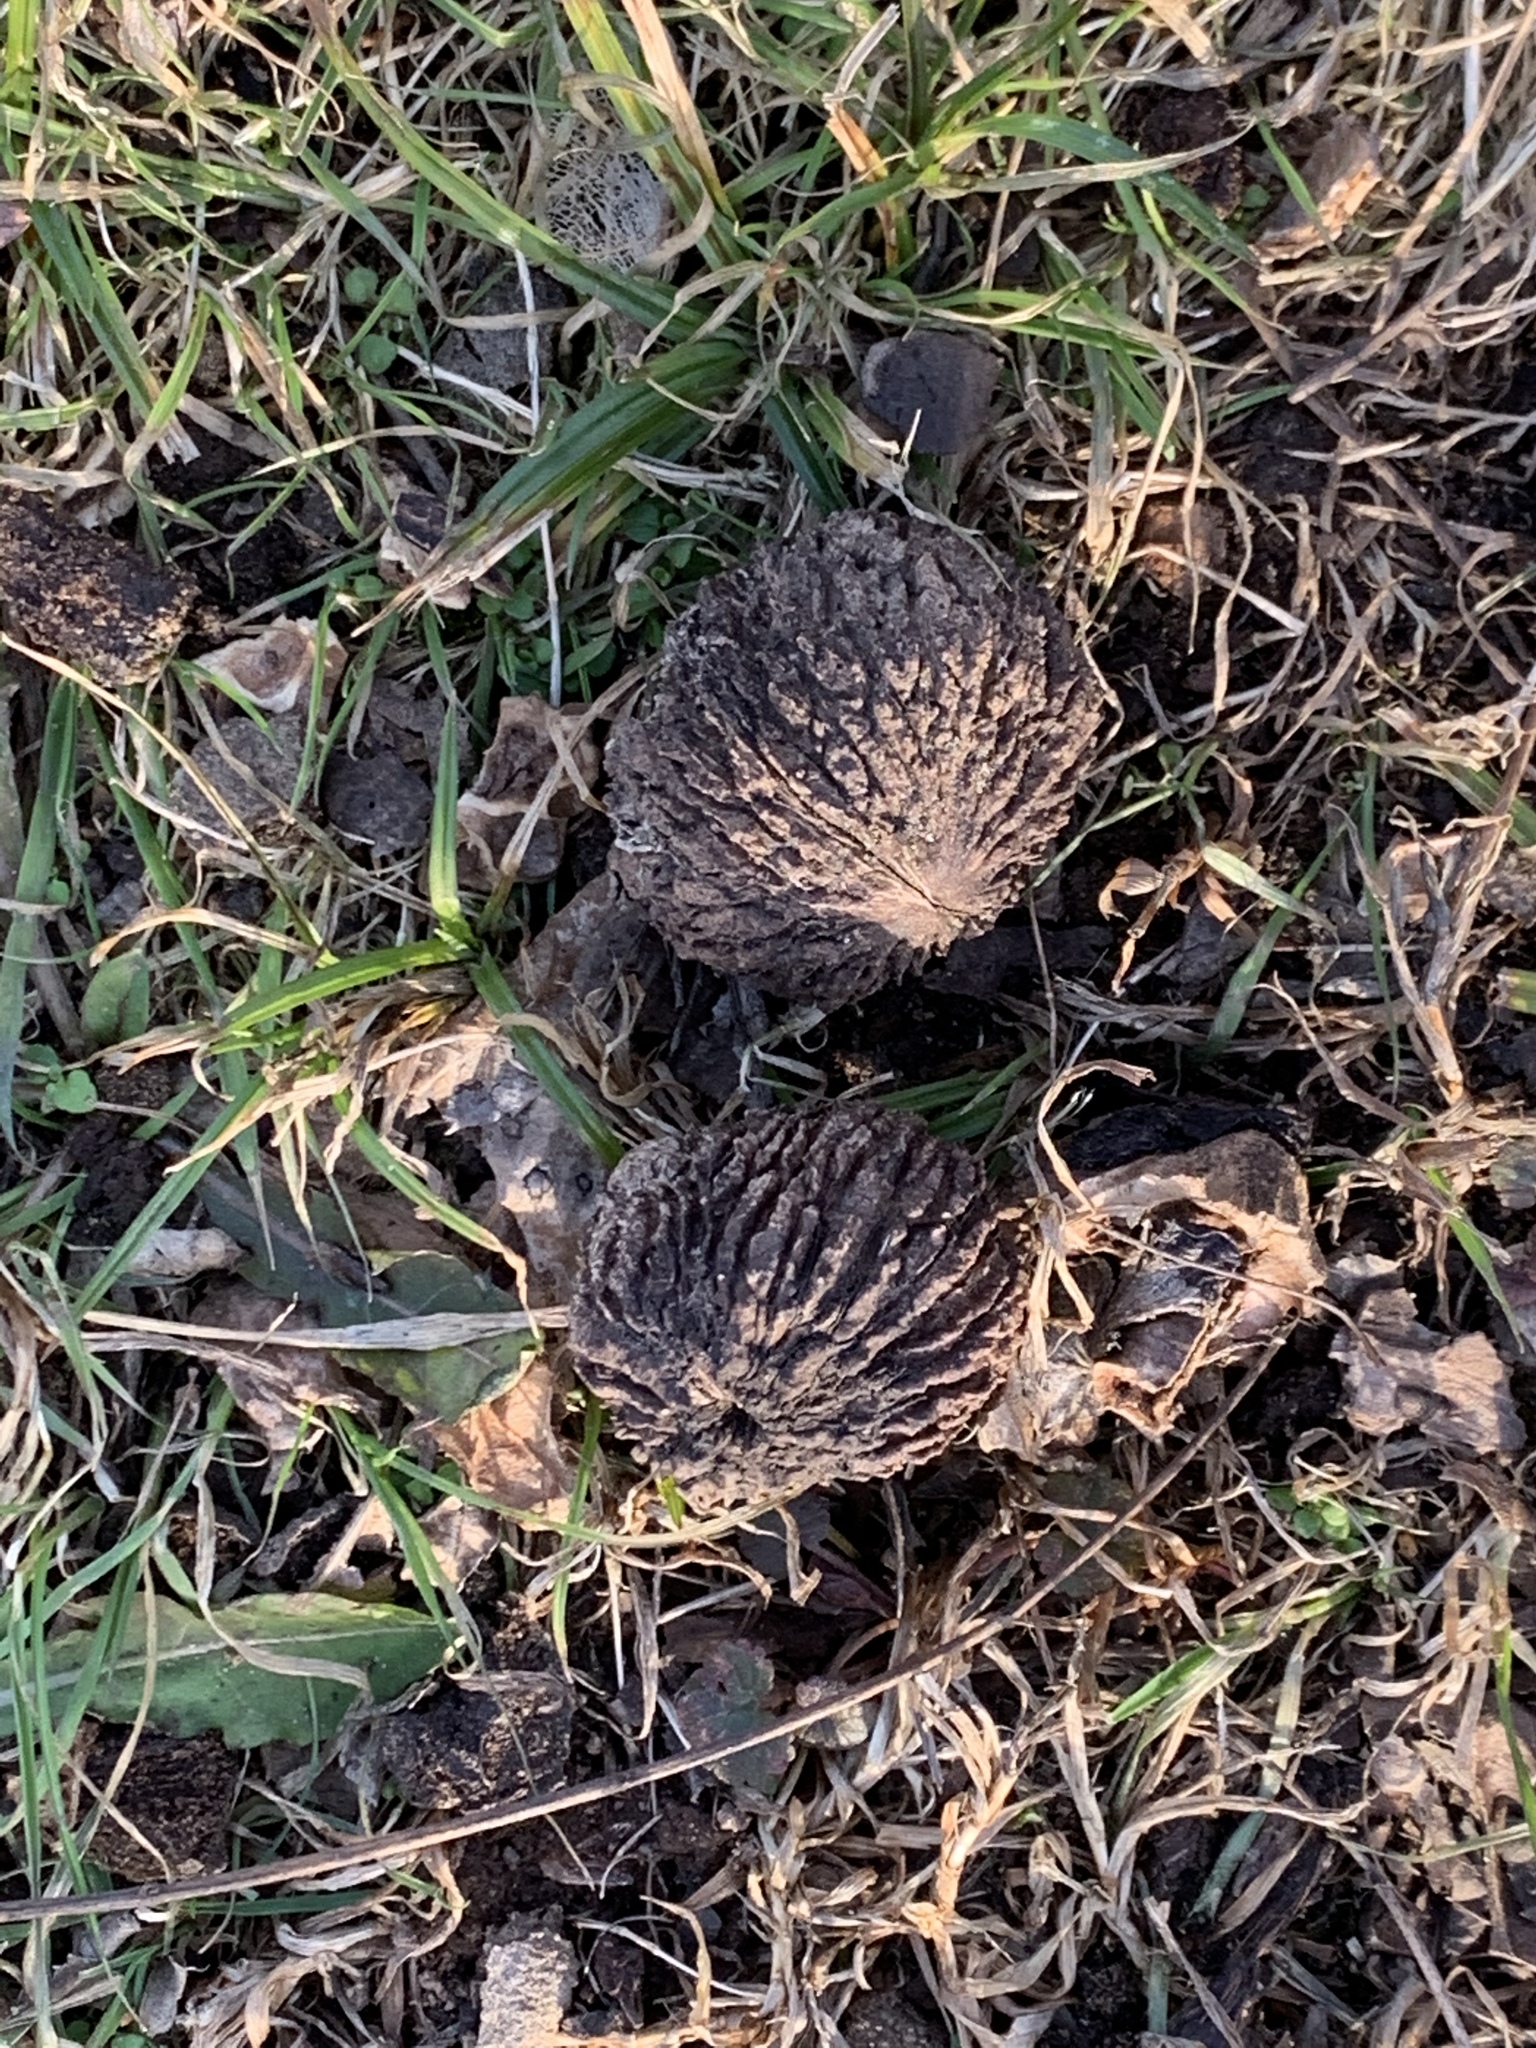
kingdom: Plantae
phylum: Tracheophyta
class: Magnoliopsida
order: Fagales
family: Juglandaceae
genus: Juglans
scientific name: Juglans nigra
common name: Black walnut
